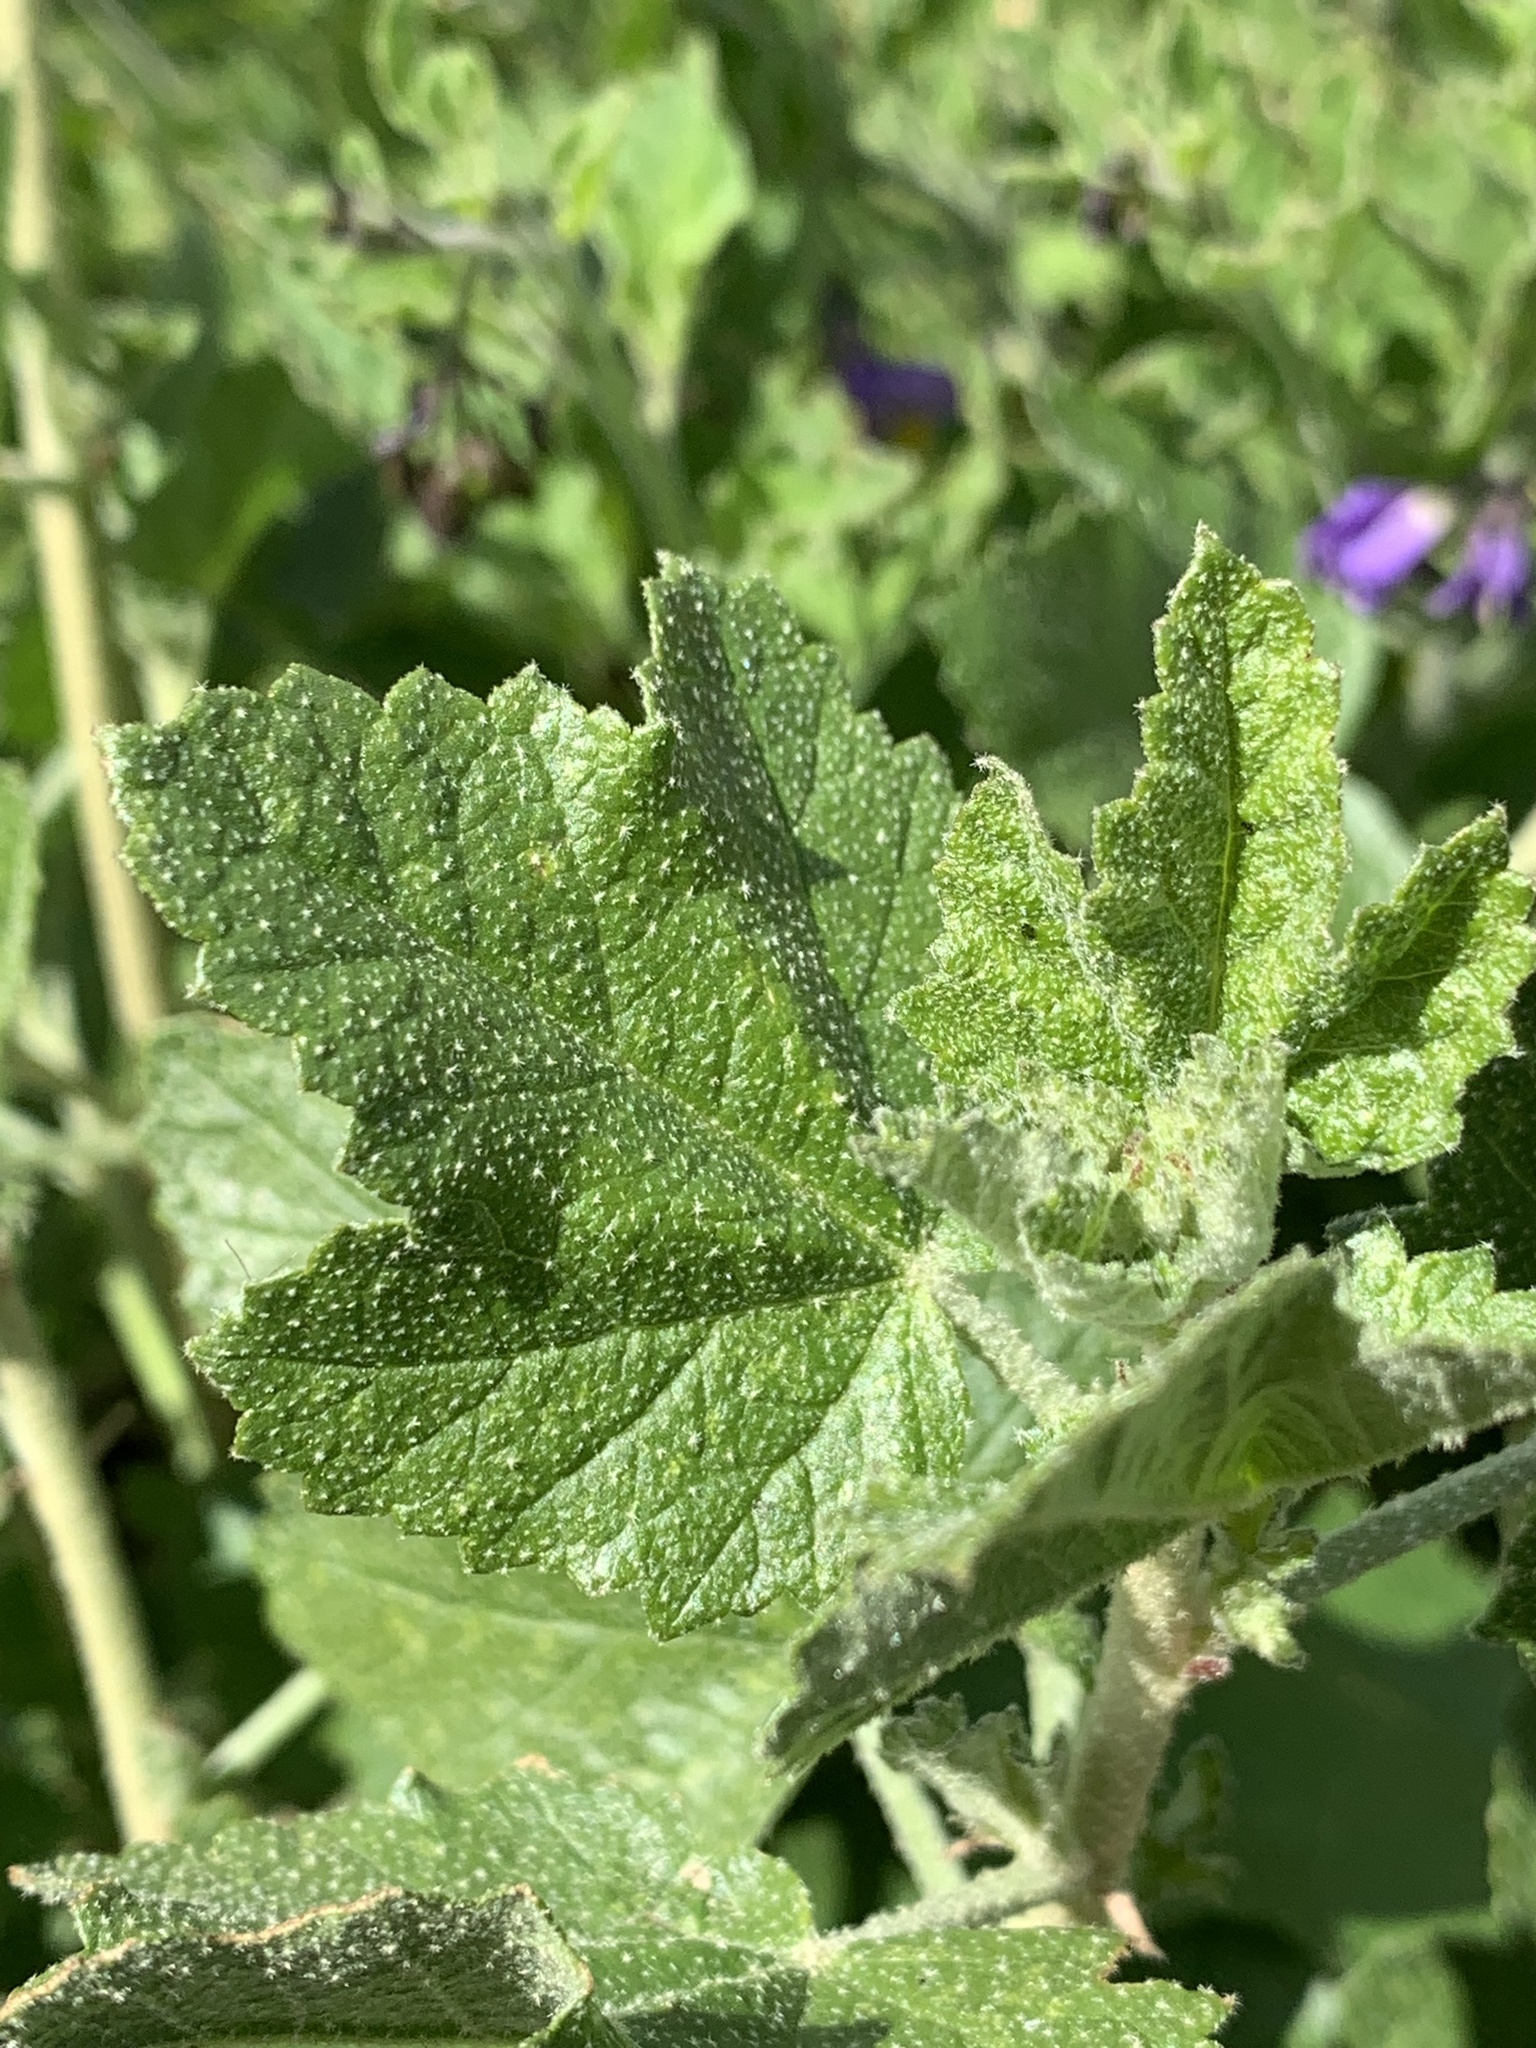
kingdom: Plantae
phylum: Tracheophyta
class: Magnoliopsida
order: Malvales
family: Malvaceae
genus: Malacothamnus
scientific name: Malacothamnus fasciculatus
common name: Sant cruz island bush-mallow
